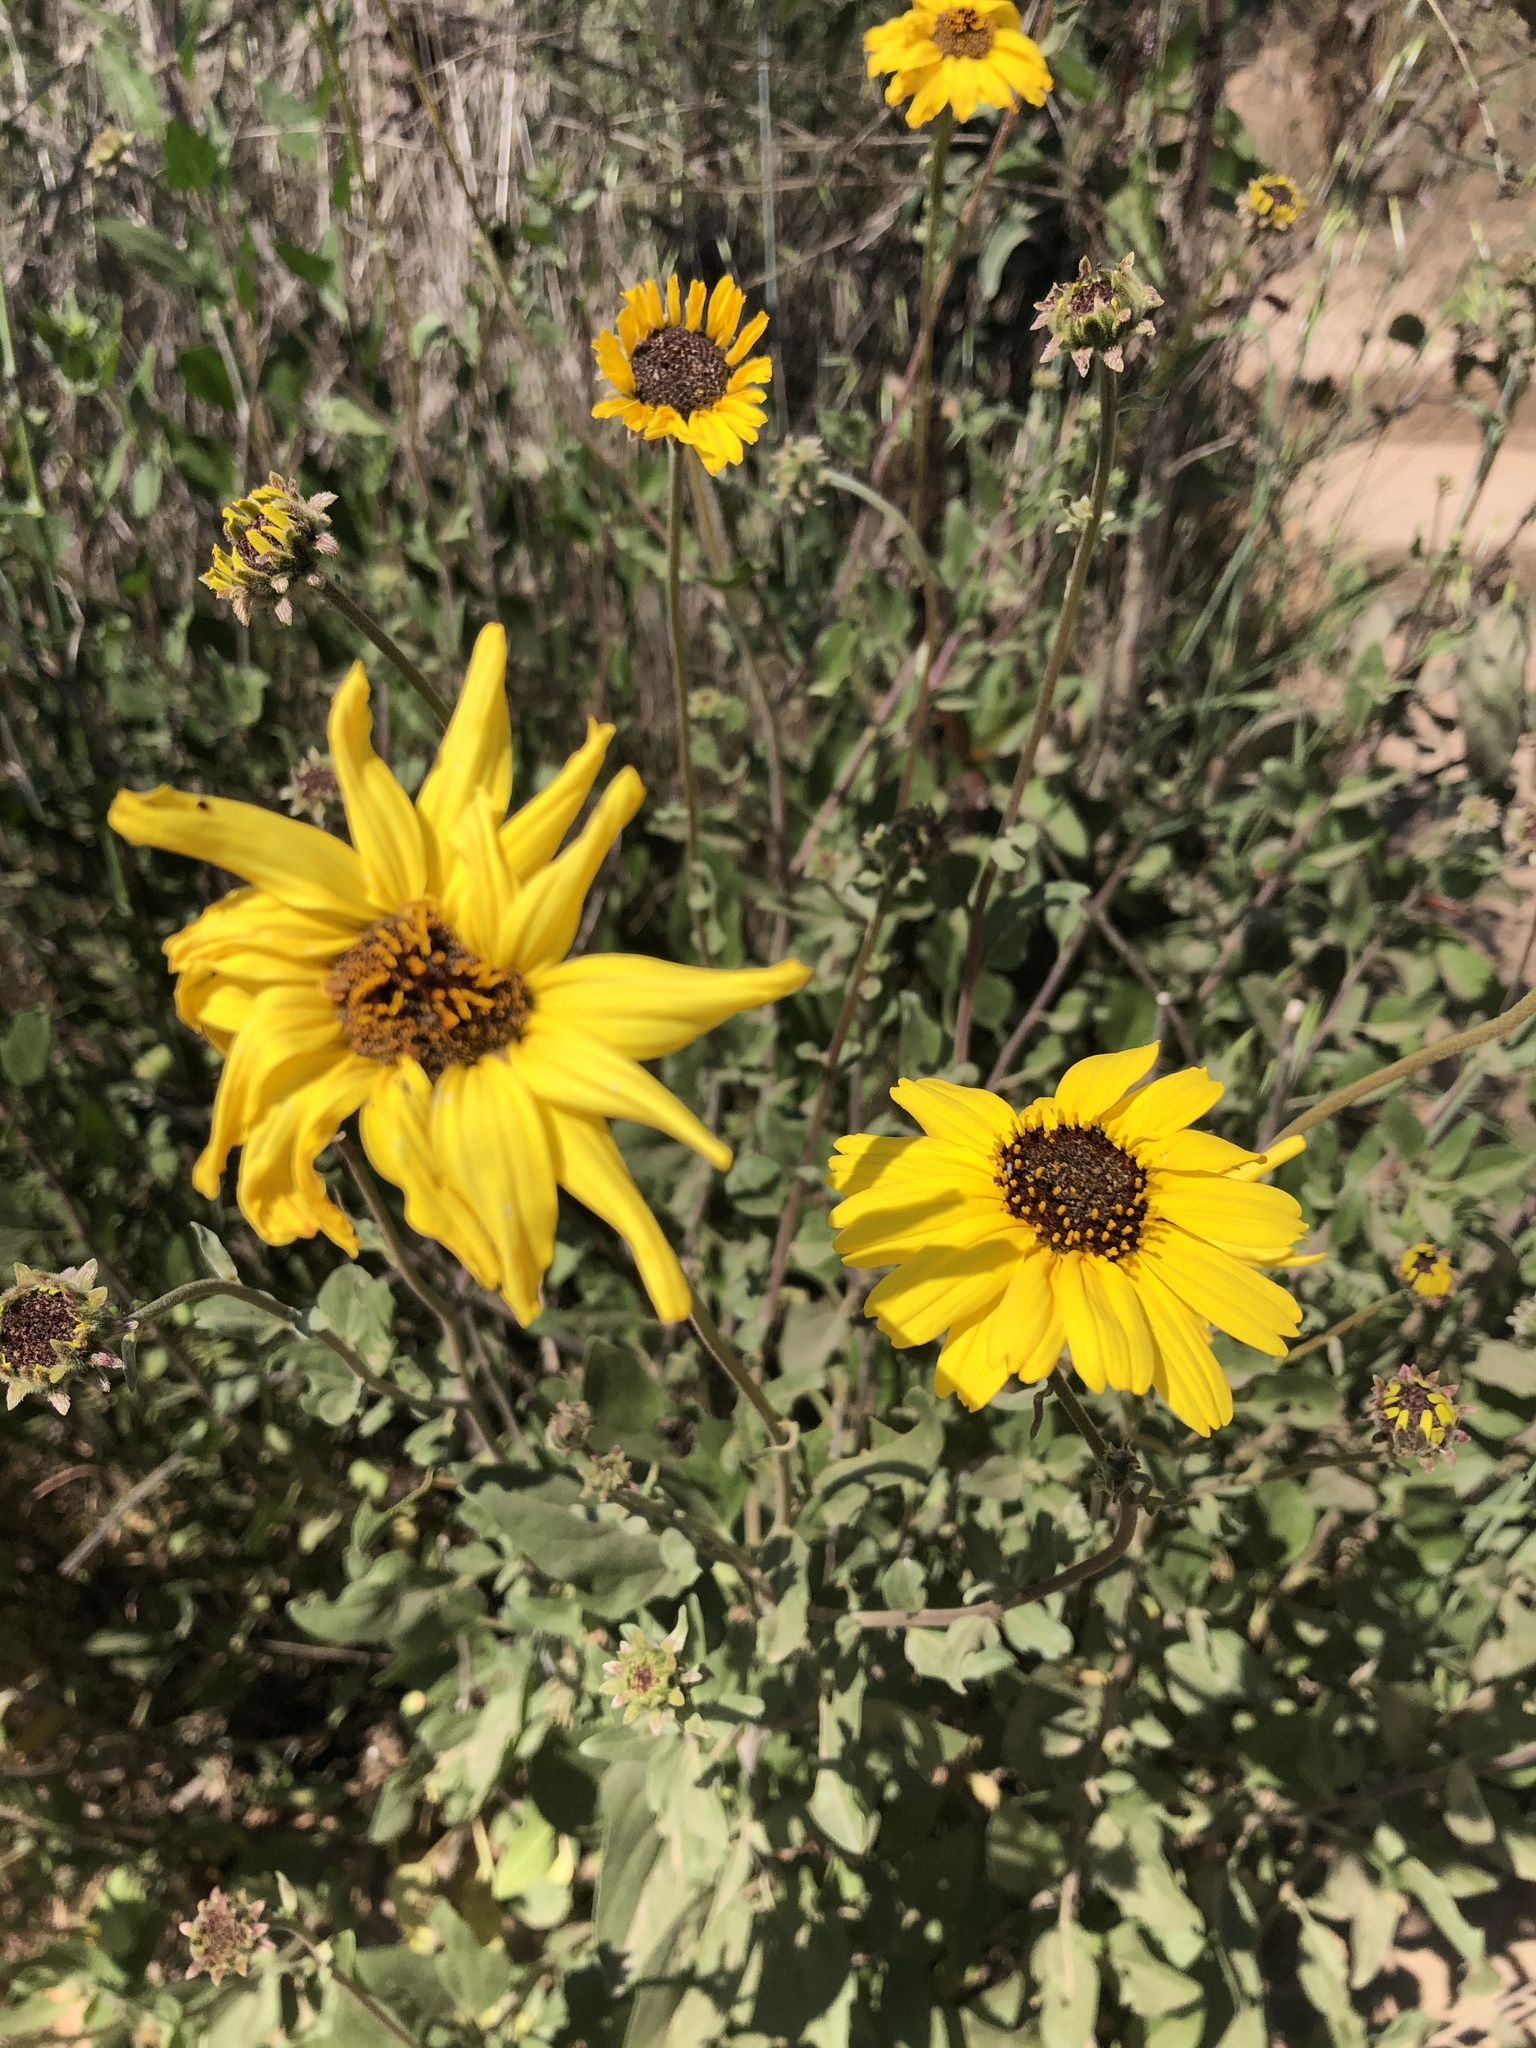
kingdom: Plantae
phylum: Tracheophyta
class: Magnoliopsida
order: Asterales
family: Asteraceae
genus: Encelia
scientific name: Encelia californica
